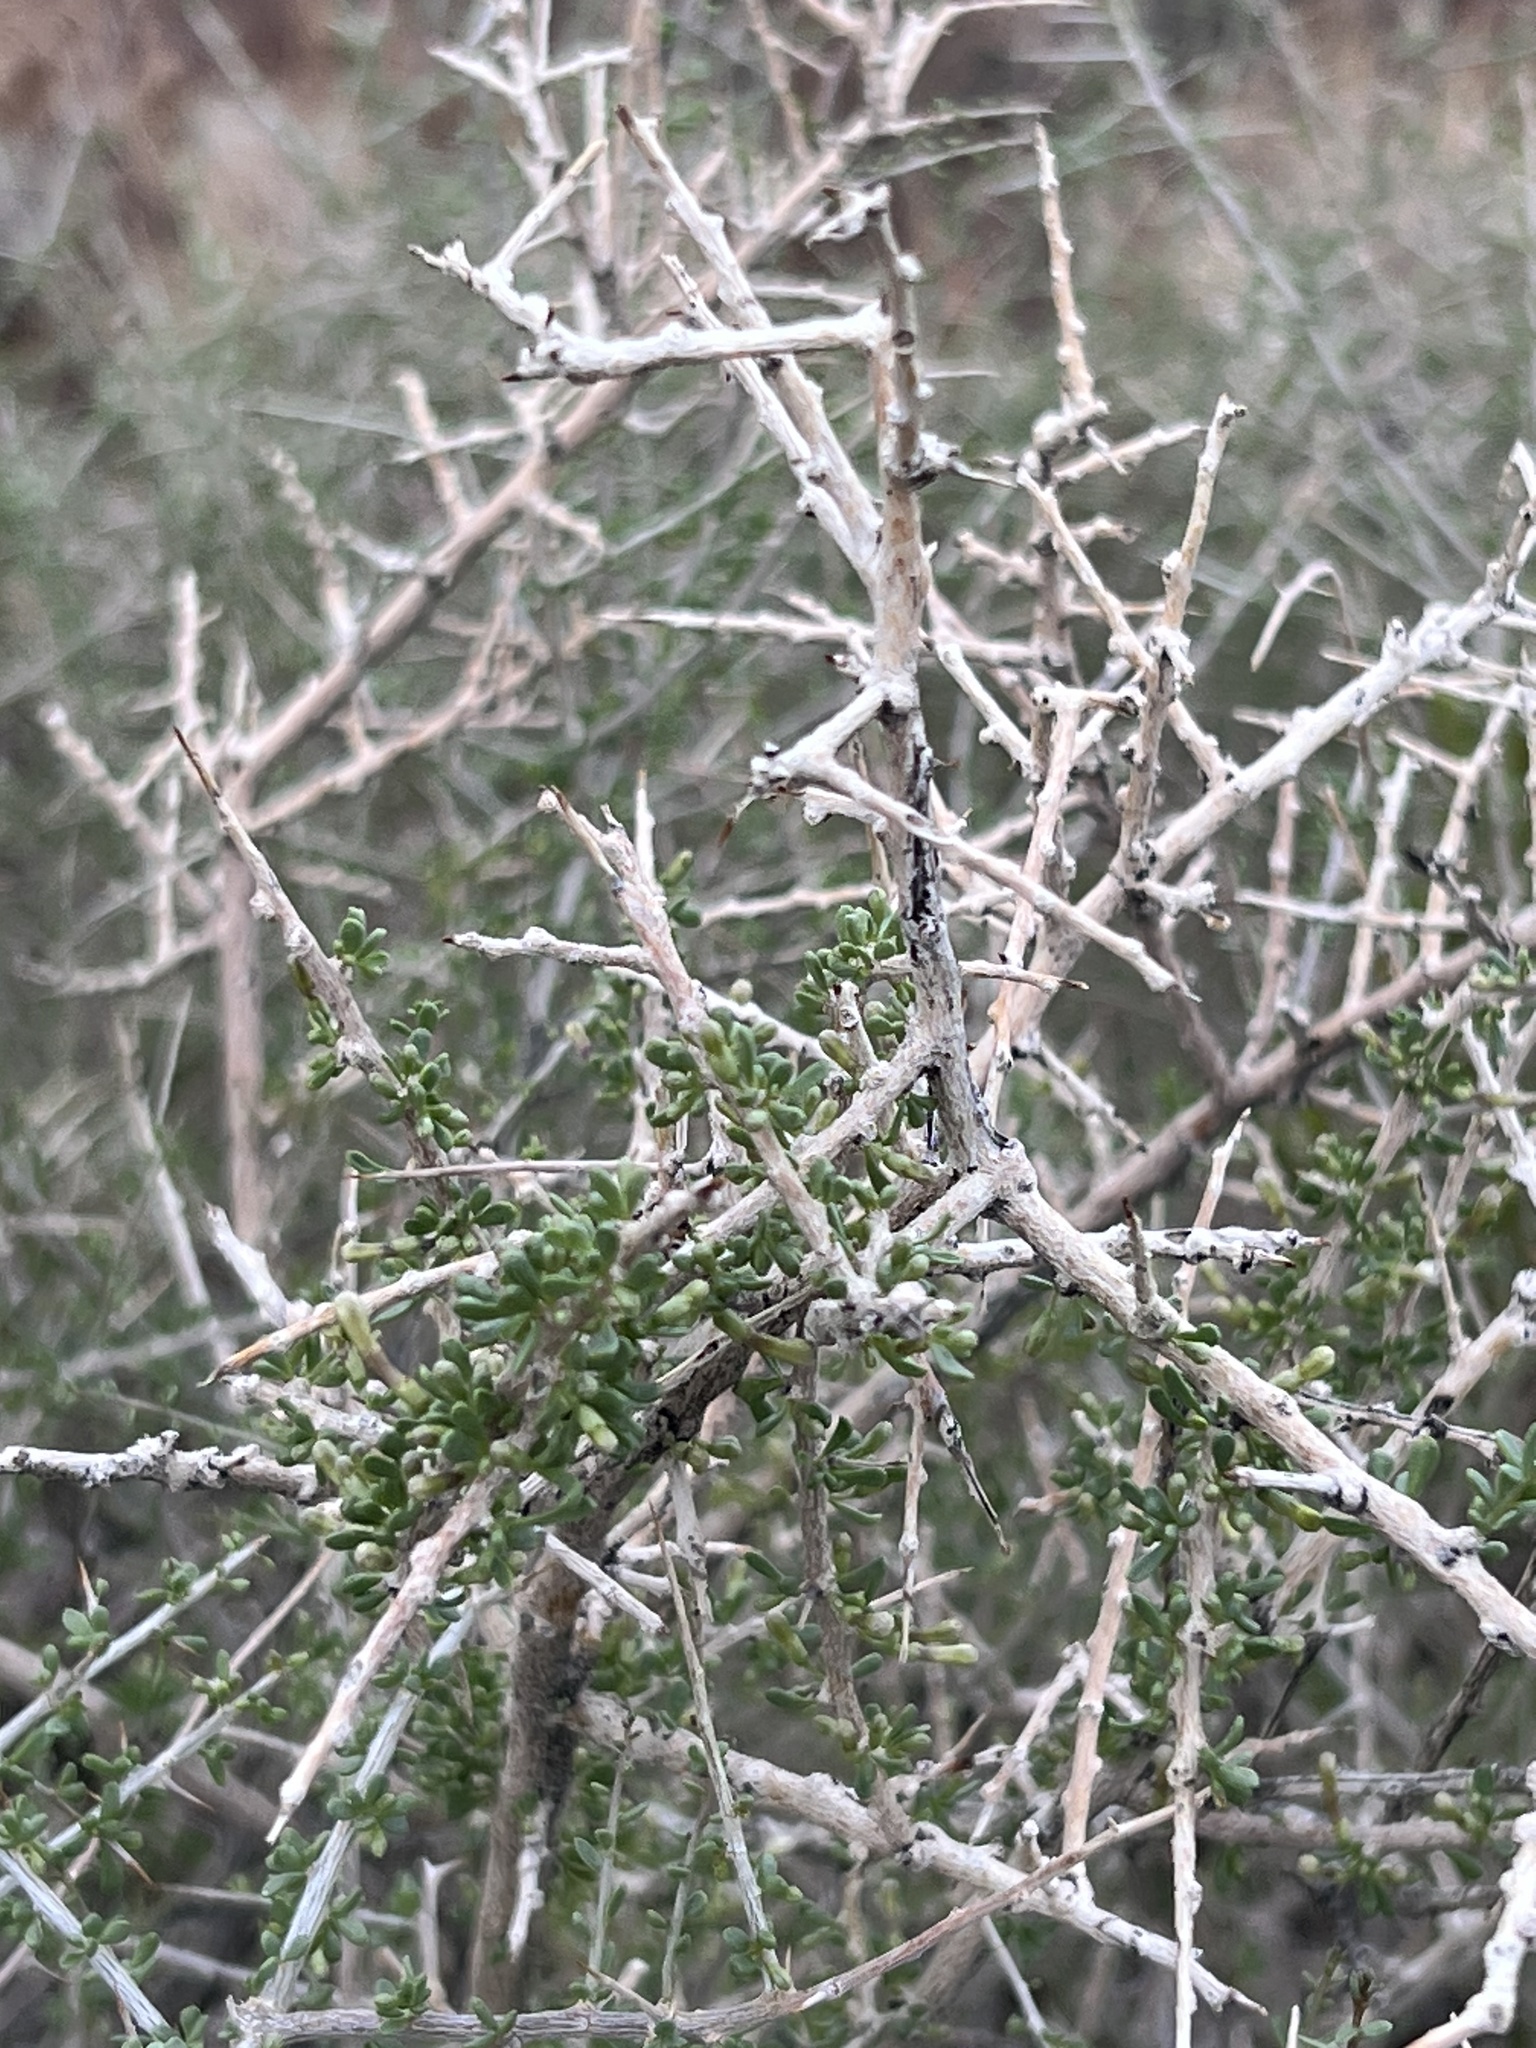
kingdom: Plantae
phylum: Tracheophyta
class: Magnoliopsida
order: Solanales
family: Solanaceae
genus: Lycium
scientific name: Lycium andersonii
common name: Water-jacket
